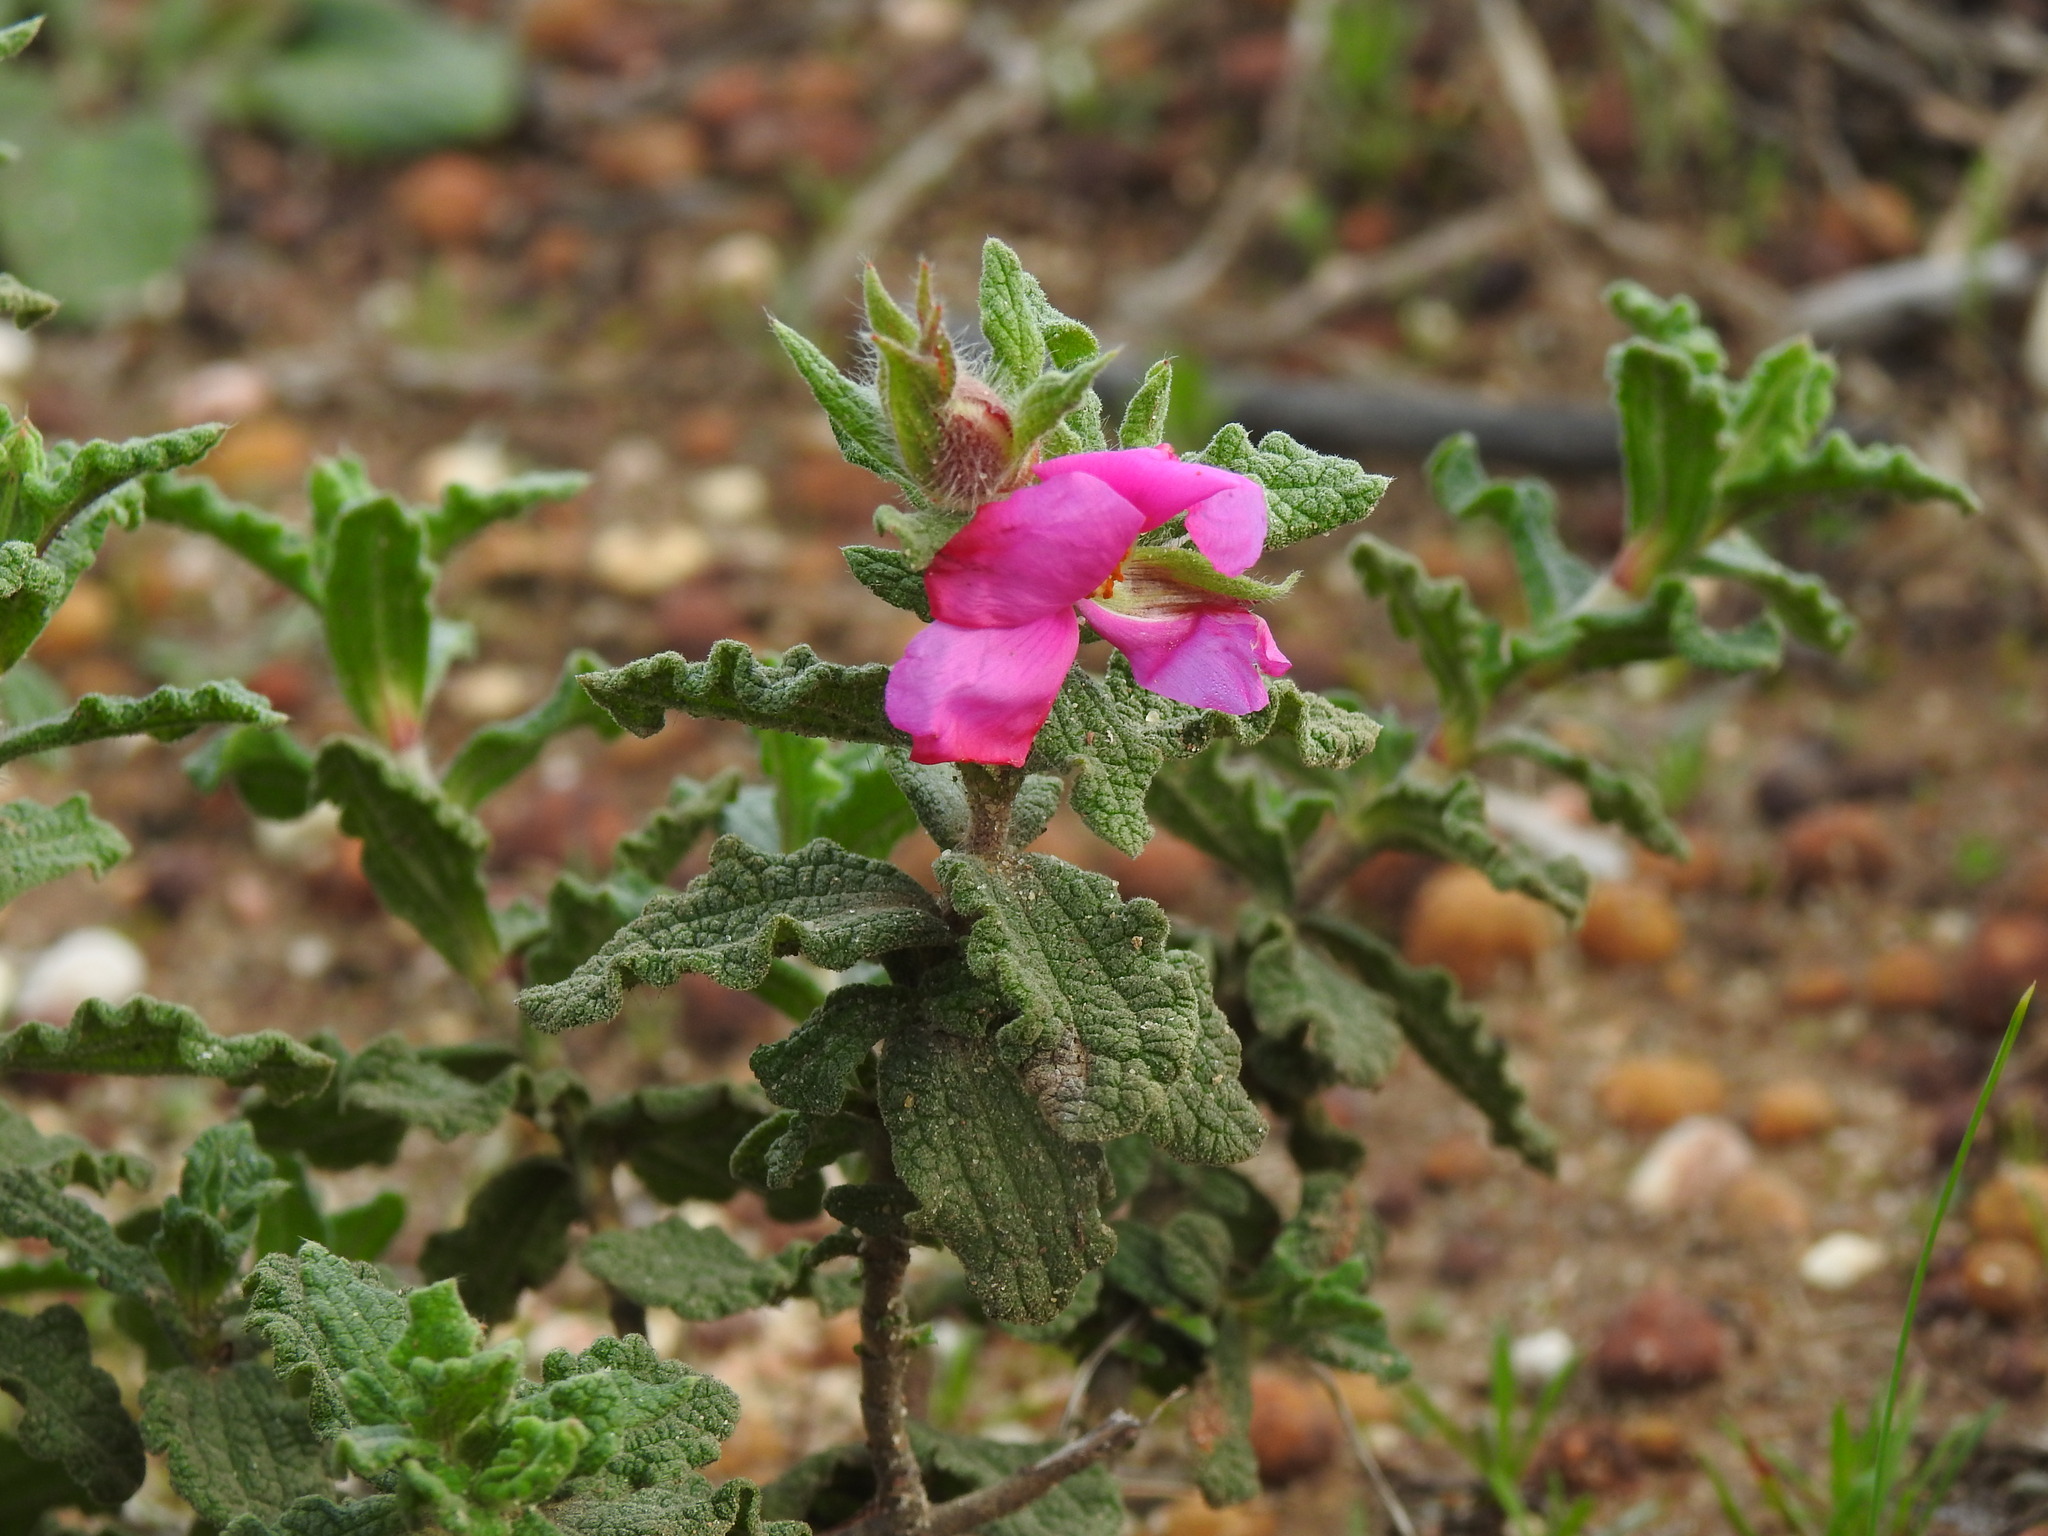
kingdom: Plantae
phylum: Tracheophyta
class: Magnoliopsida
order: Malvales
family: Cistaceae
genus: Cistus
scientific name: Cistus crispus
